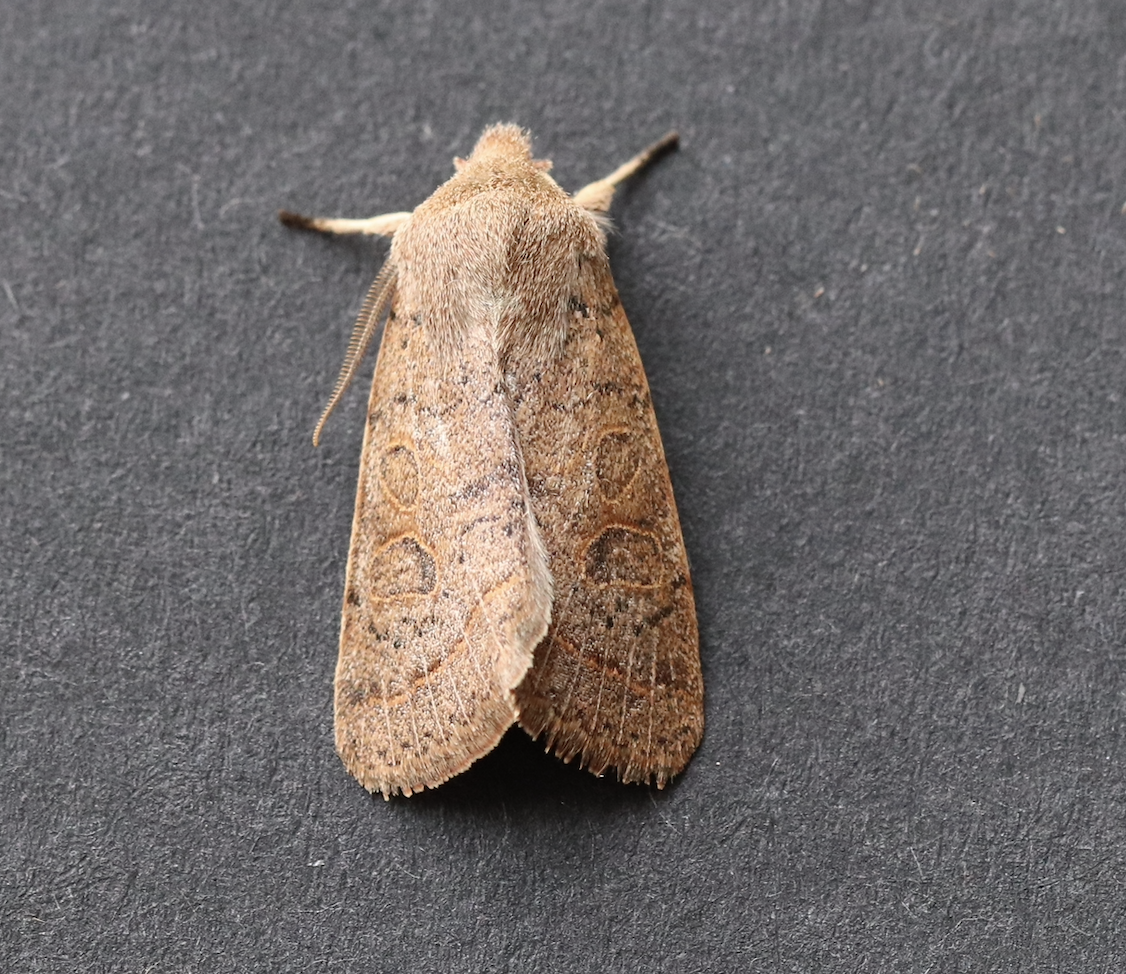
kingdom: Animalia
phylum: Arthropoda
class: Insecta
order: Lepidoptera
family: Noctuidae
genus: Orthosia
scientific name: Orthosia cerasi
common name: Common quaker
